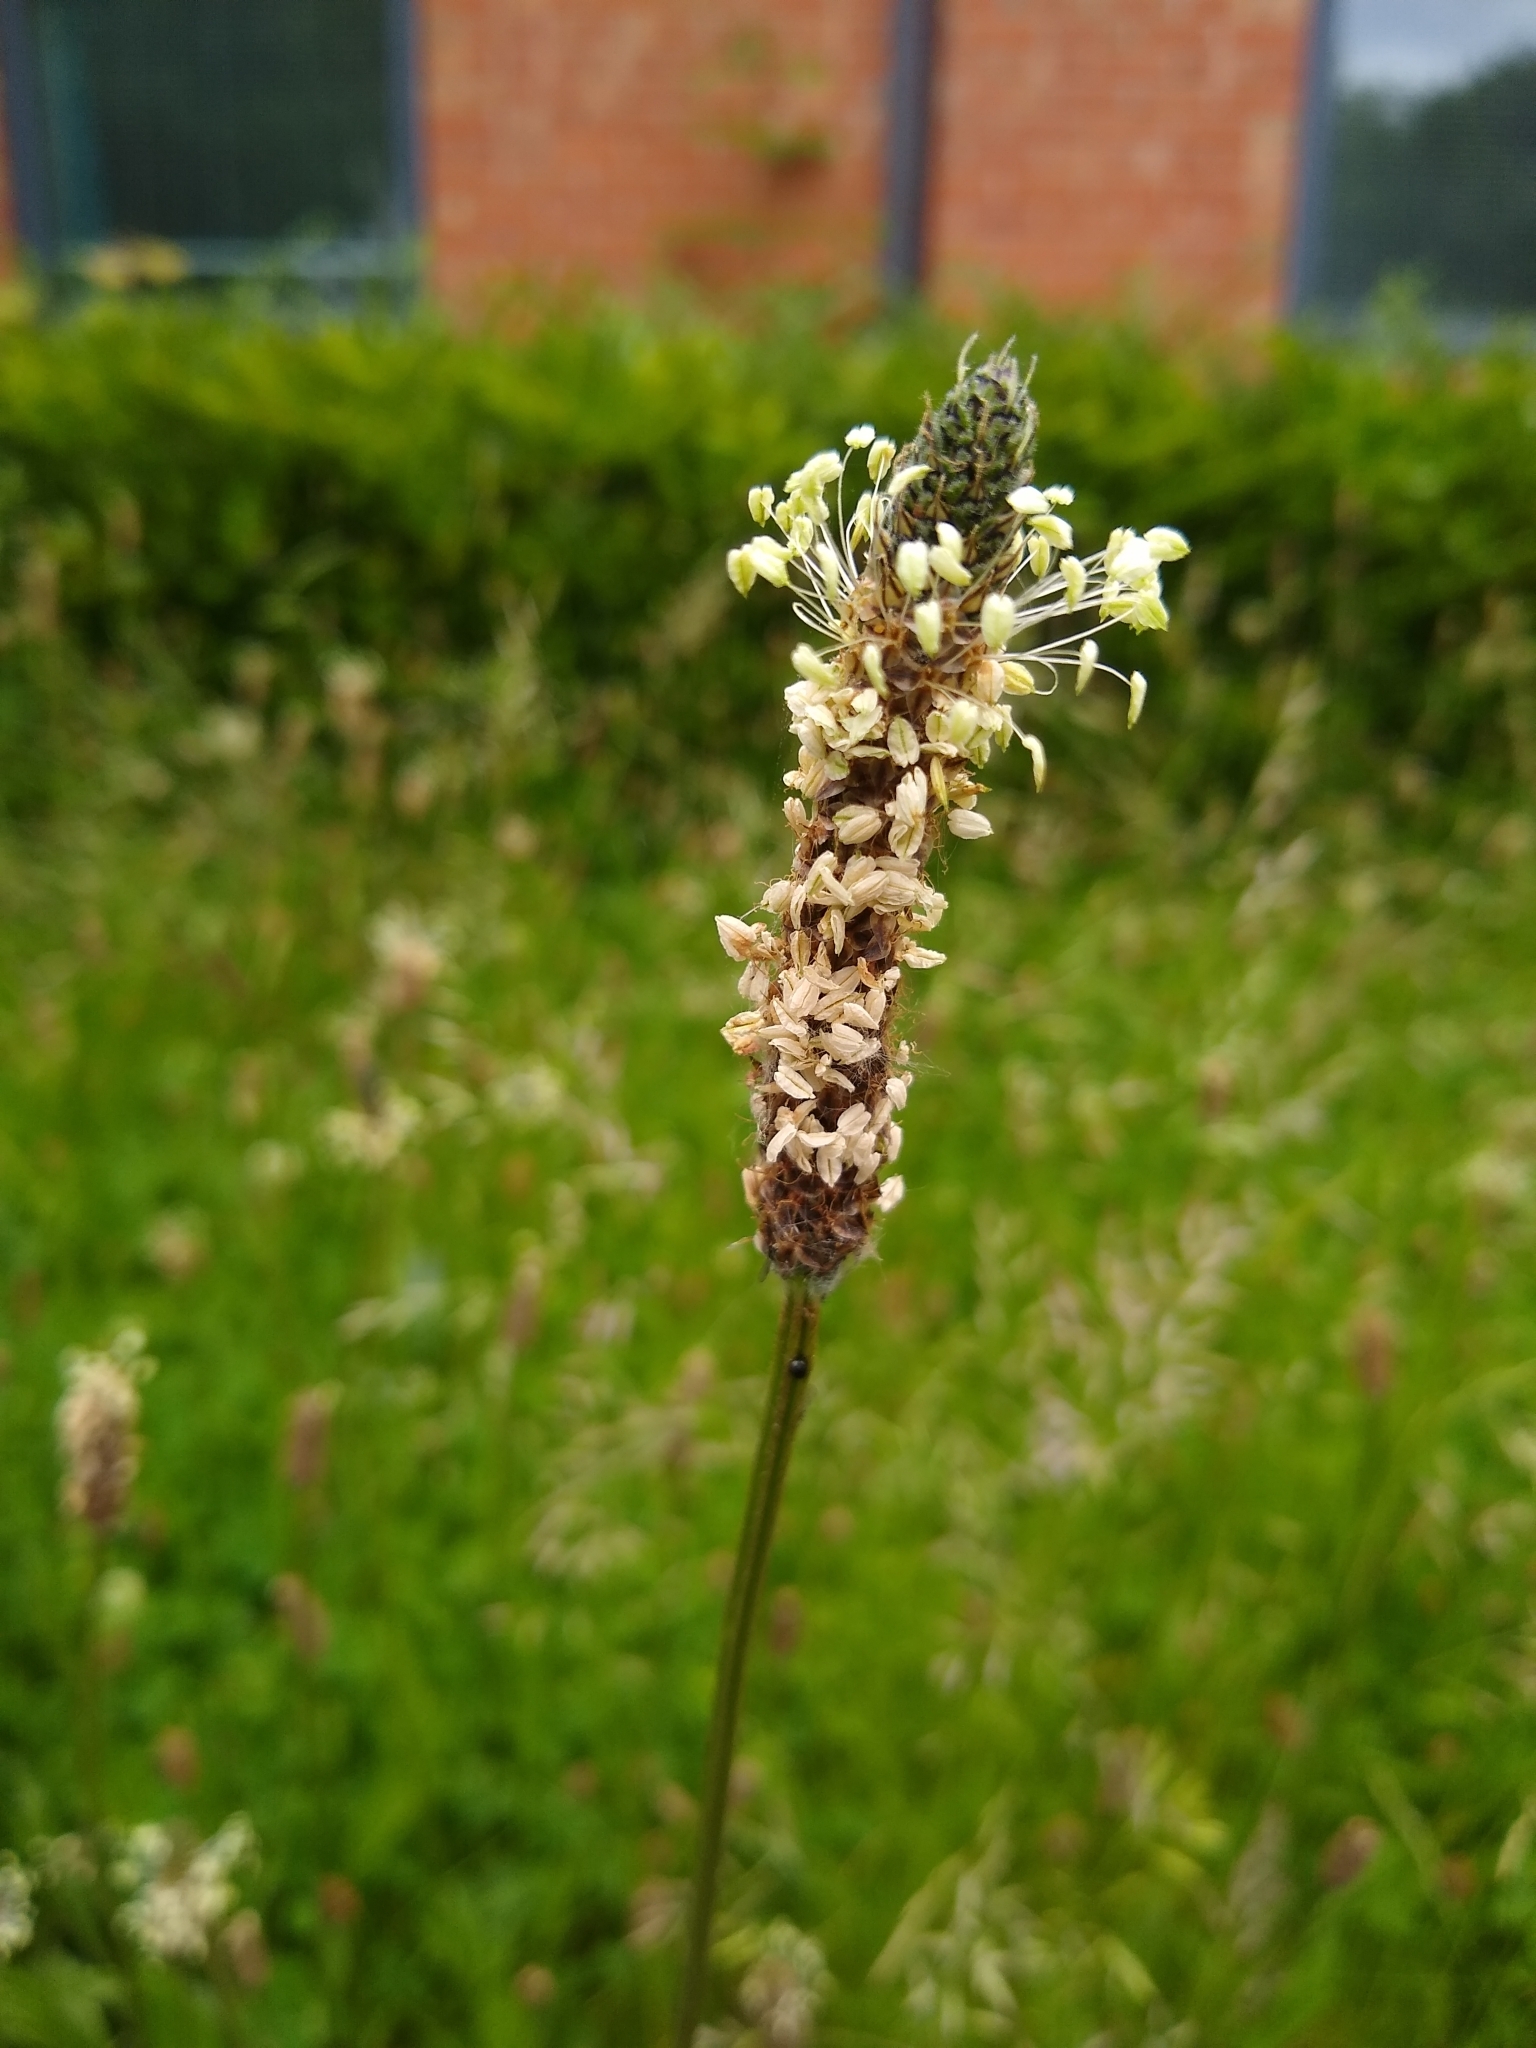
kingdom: Plantae
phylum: Tracheophyta
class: Magnoliopsida
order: Lamiales
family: Plantaginaceae
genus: Plantago
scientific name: Plantago lanceolata
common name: Ribwort plantain
